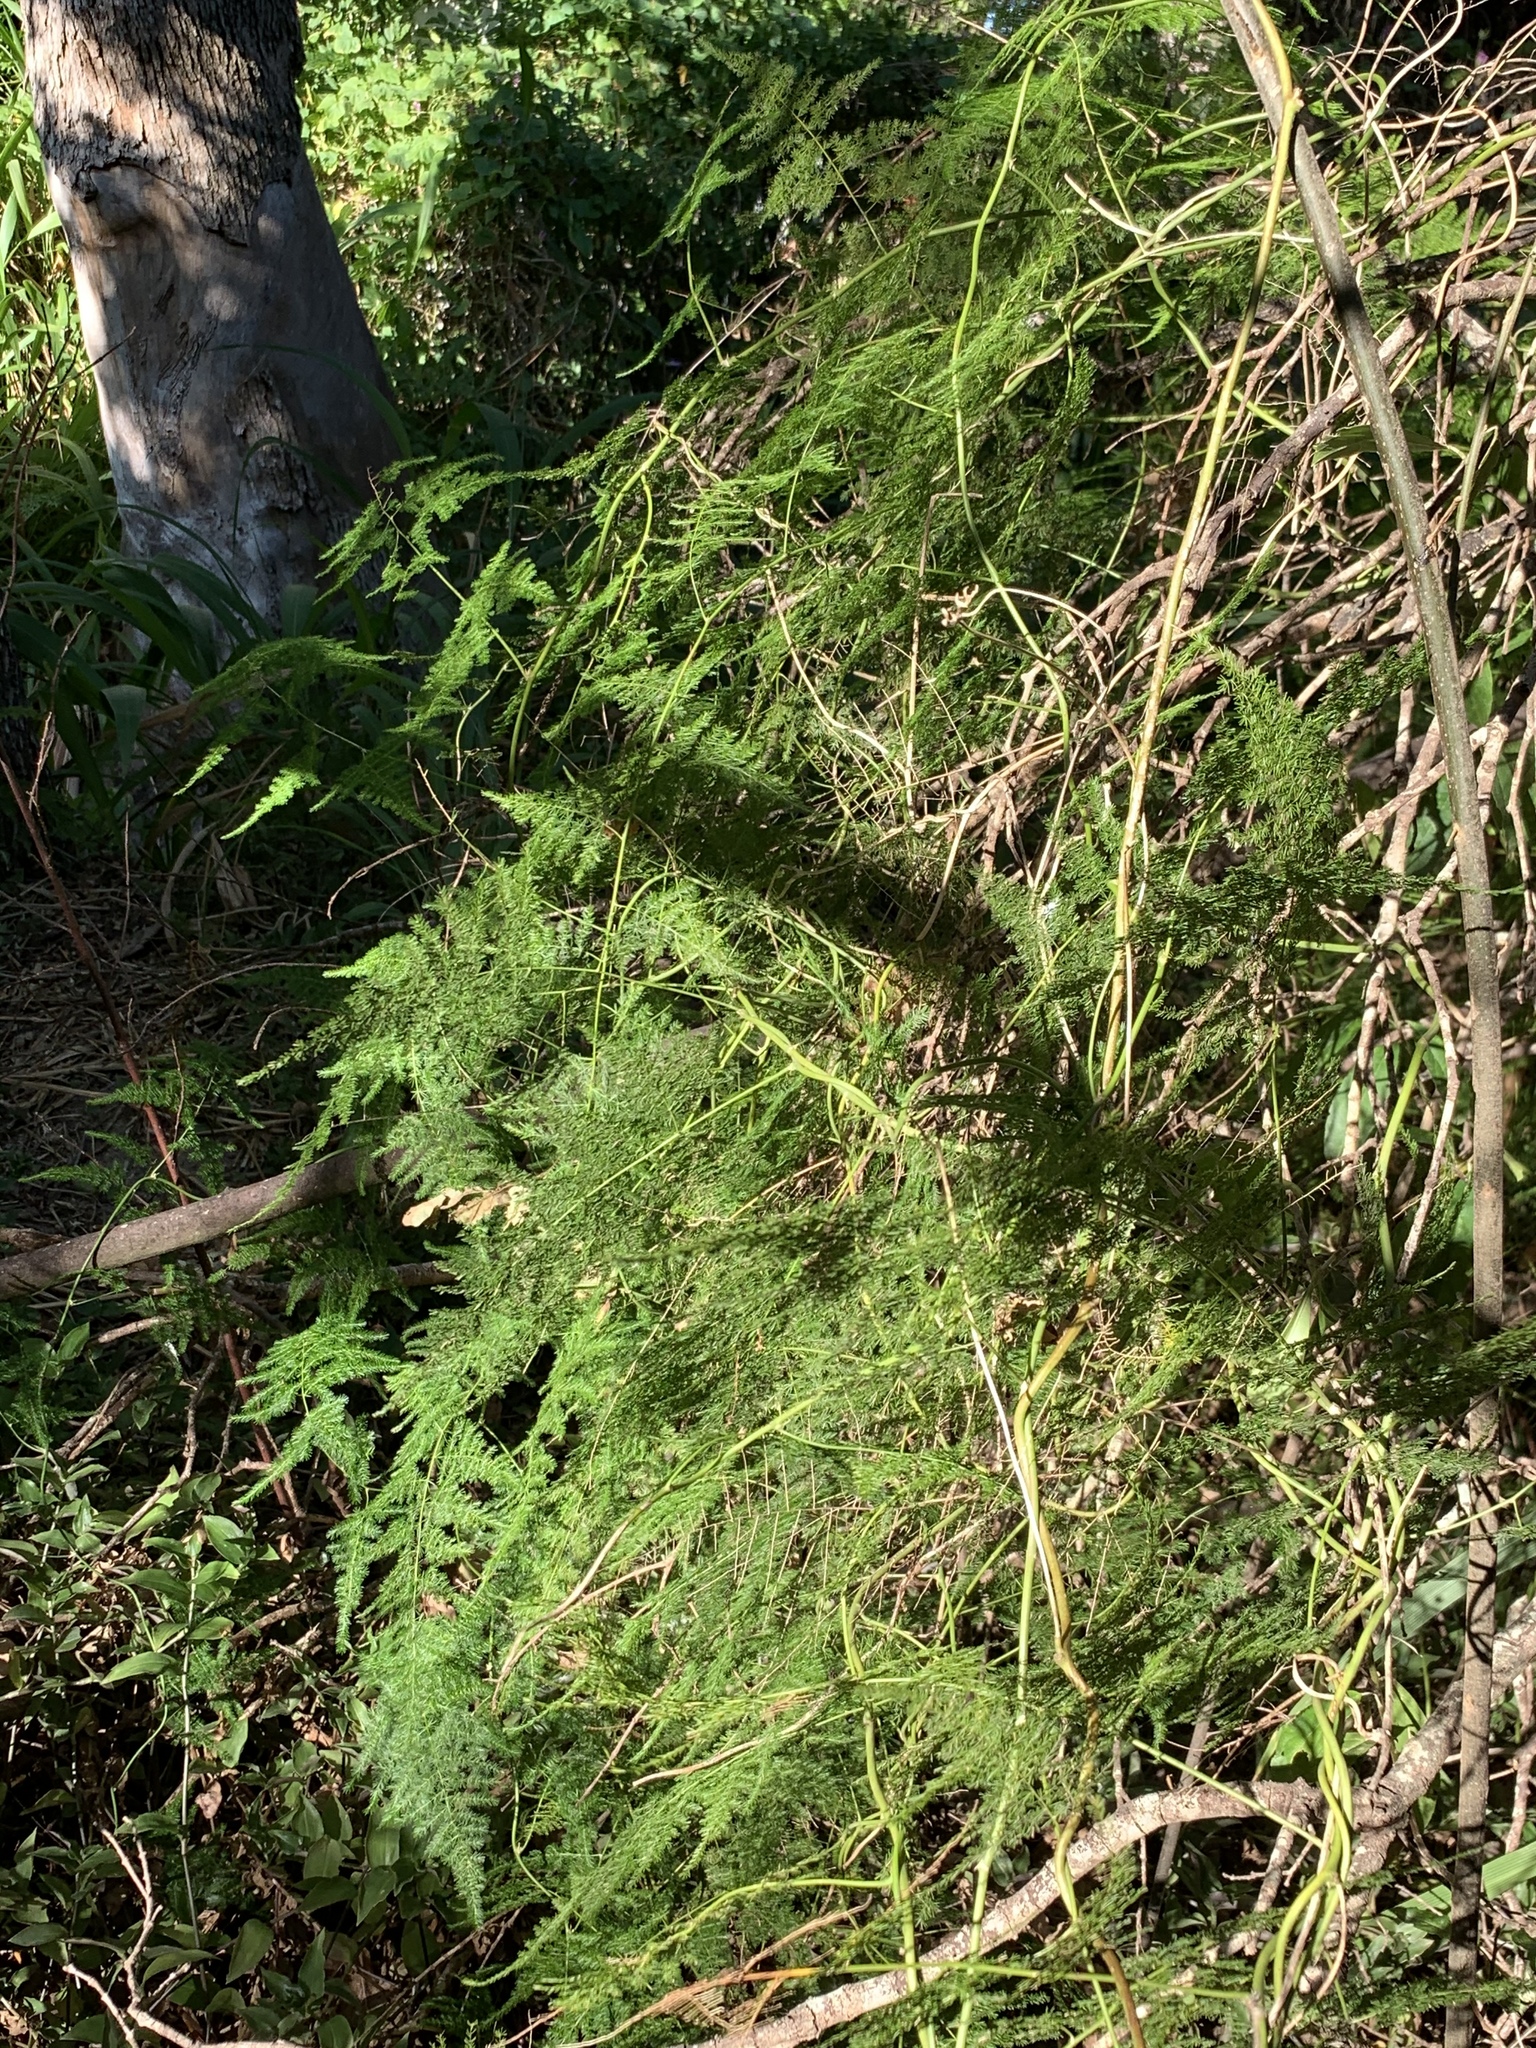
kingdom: Plantae
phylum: Tracheophyta
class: Liliopsida
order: Asparagales
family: Asparagaceae
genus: Asparagus
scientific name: Asparagus setaceus
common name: Common asparagus fern
